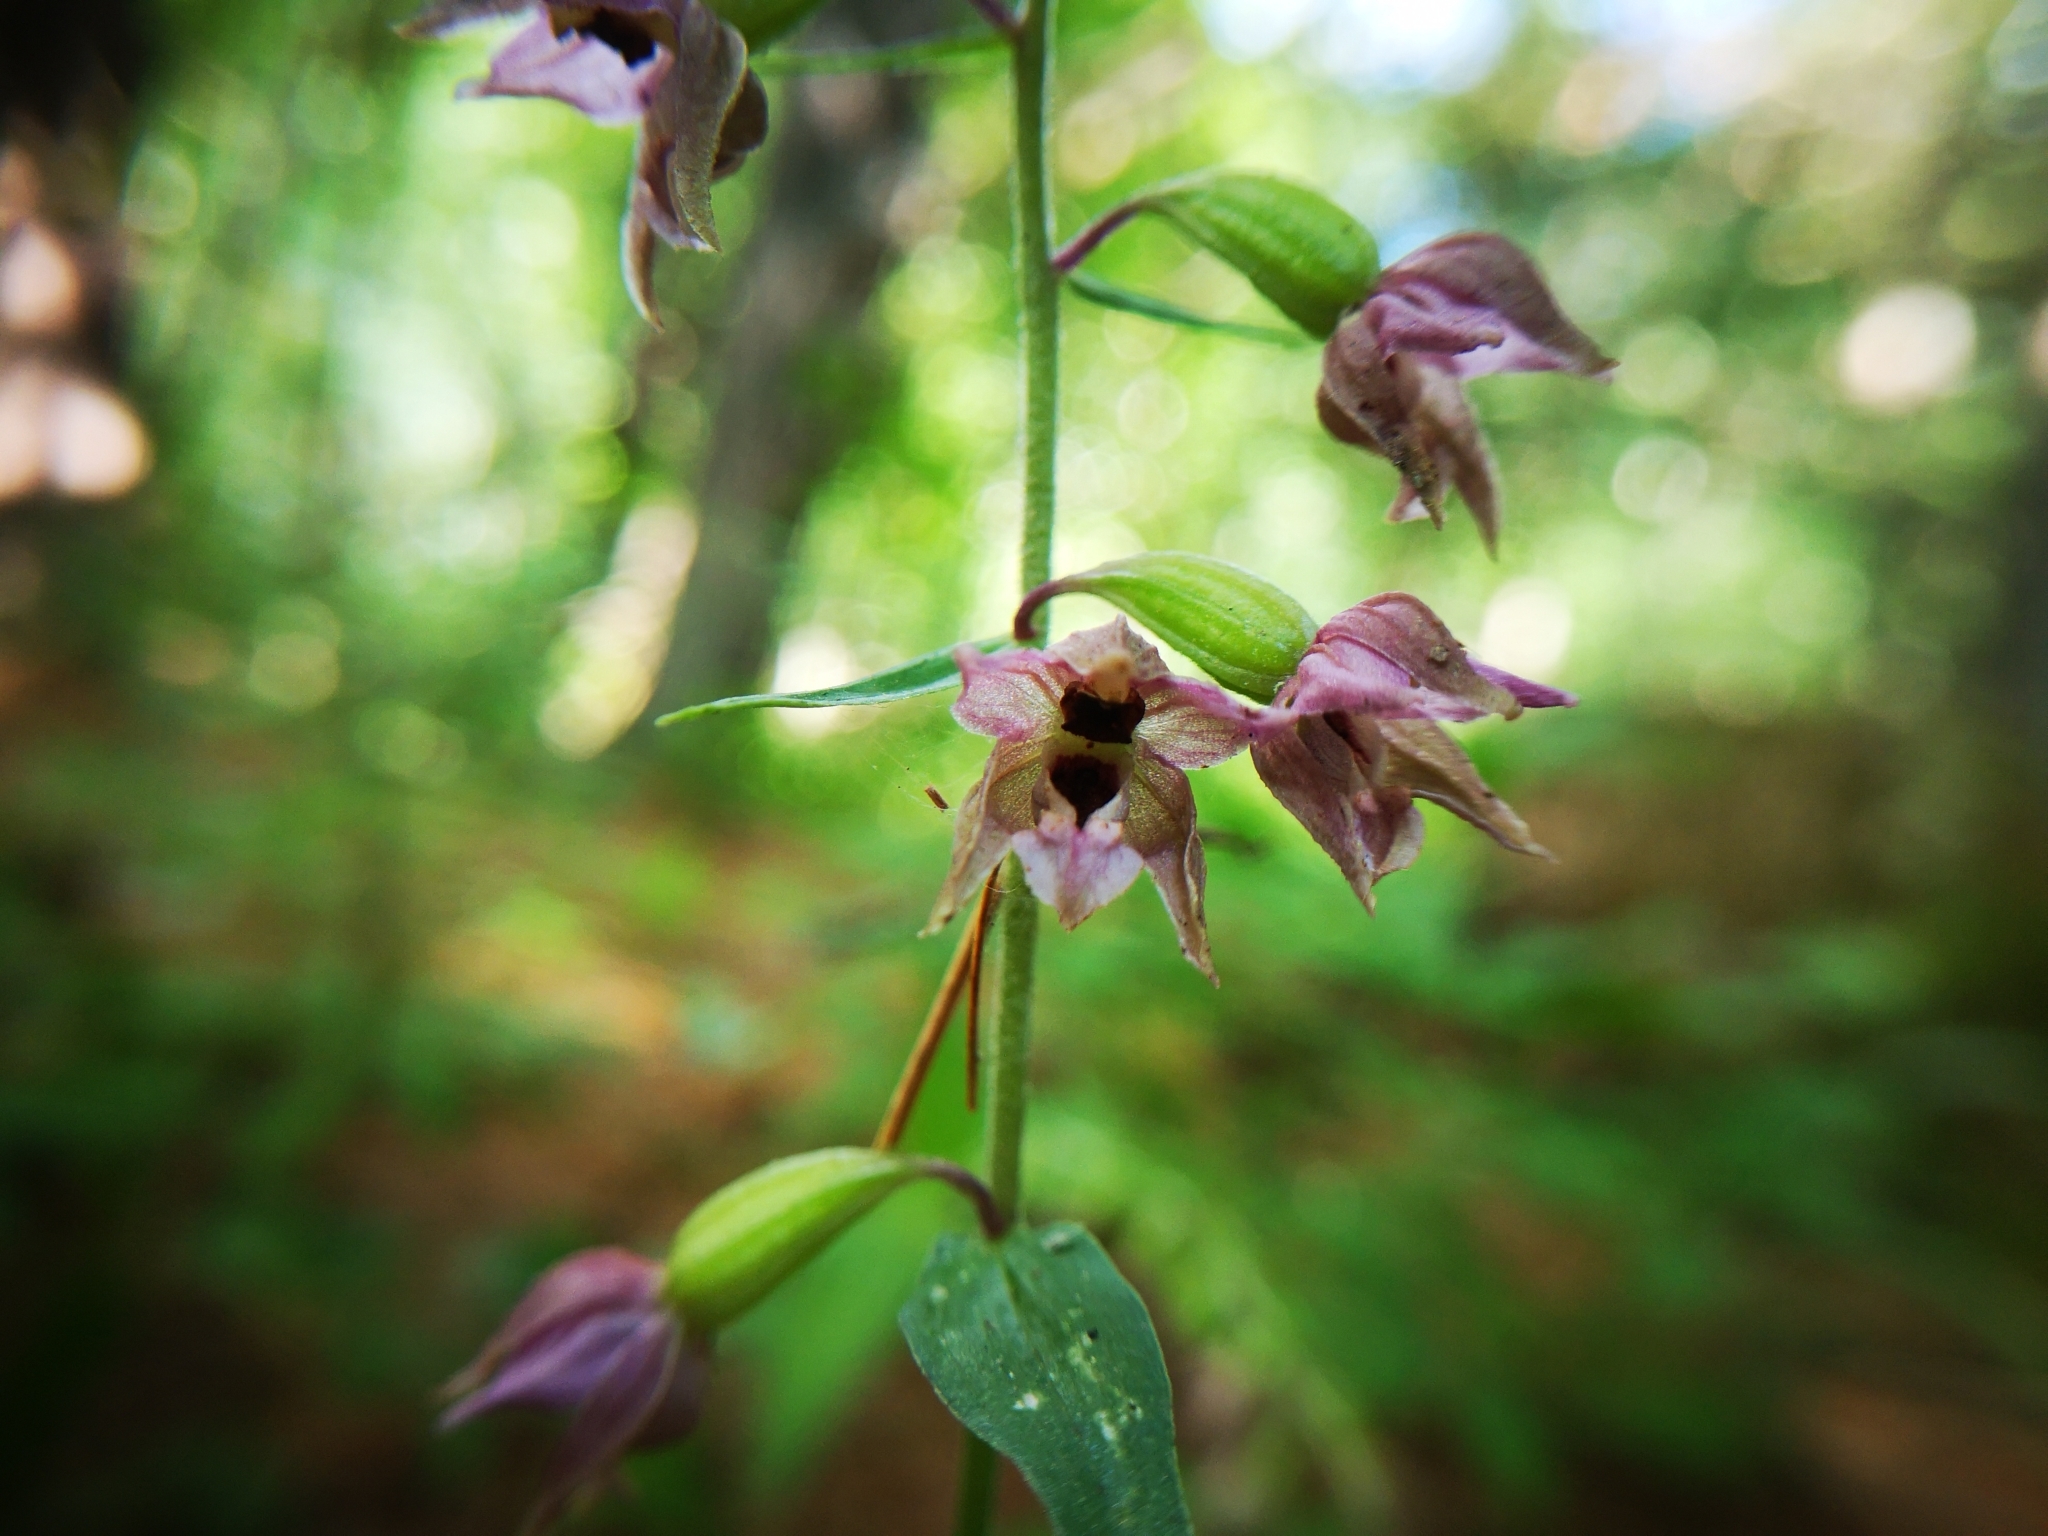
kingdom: Plantae
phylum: Tracheophyta
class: Liliopsida
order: Asparagales
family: Orchidaceae
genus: Epipactis
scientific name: Epipactis helleborine
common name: Broad-leaved helleborine
